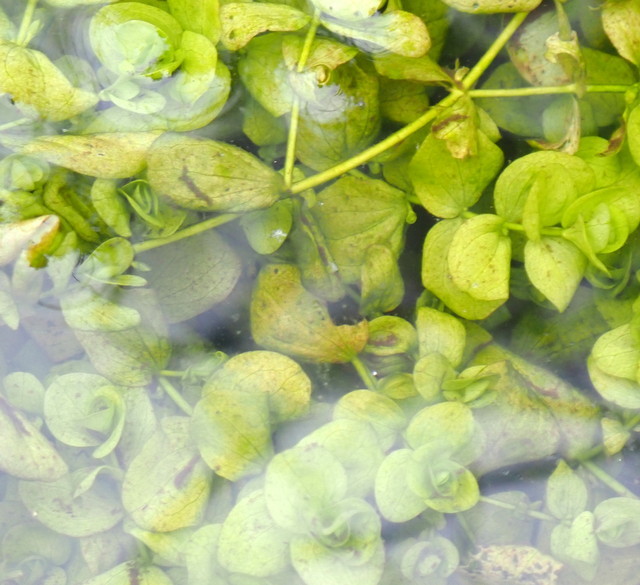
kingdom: Plantae
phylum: Tracheophyta
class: Magnoliopsida
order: Lamiales
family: Linderniaceae
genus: Micranthemum
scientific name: Micranthemum umbrosum
